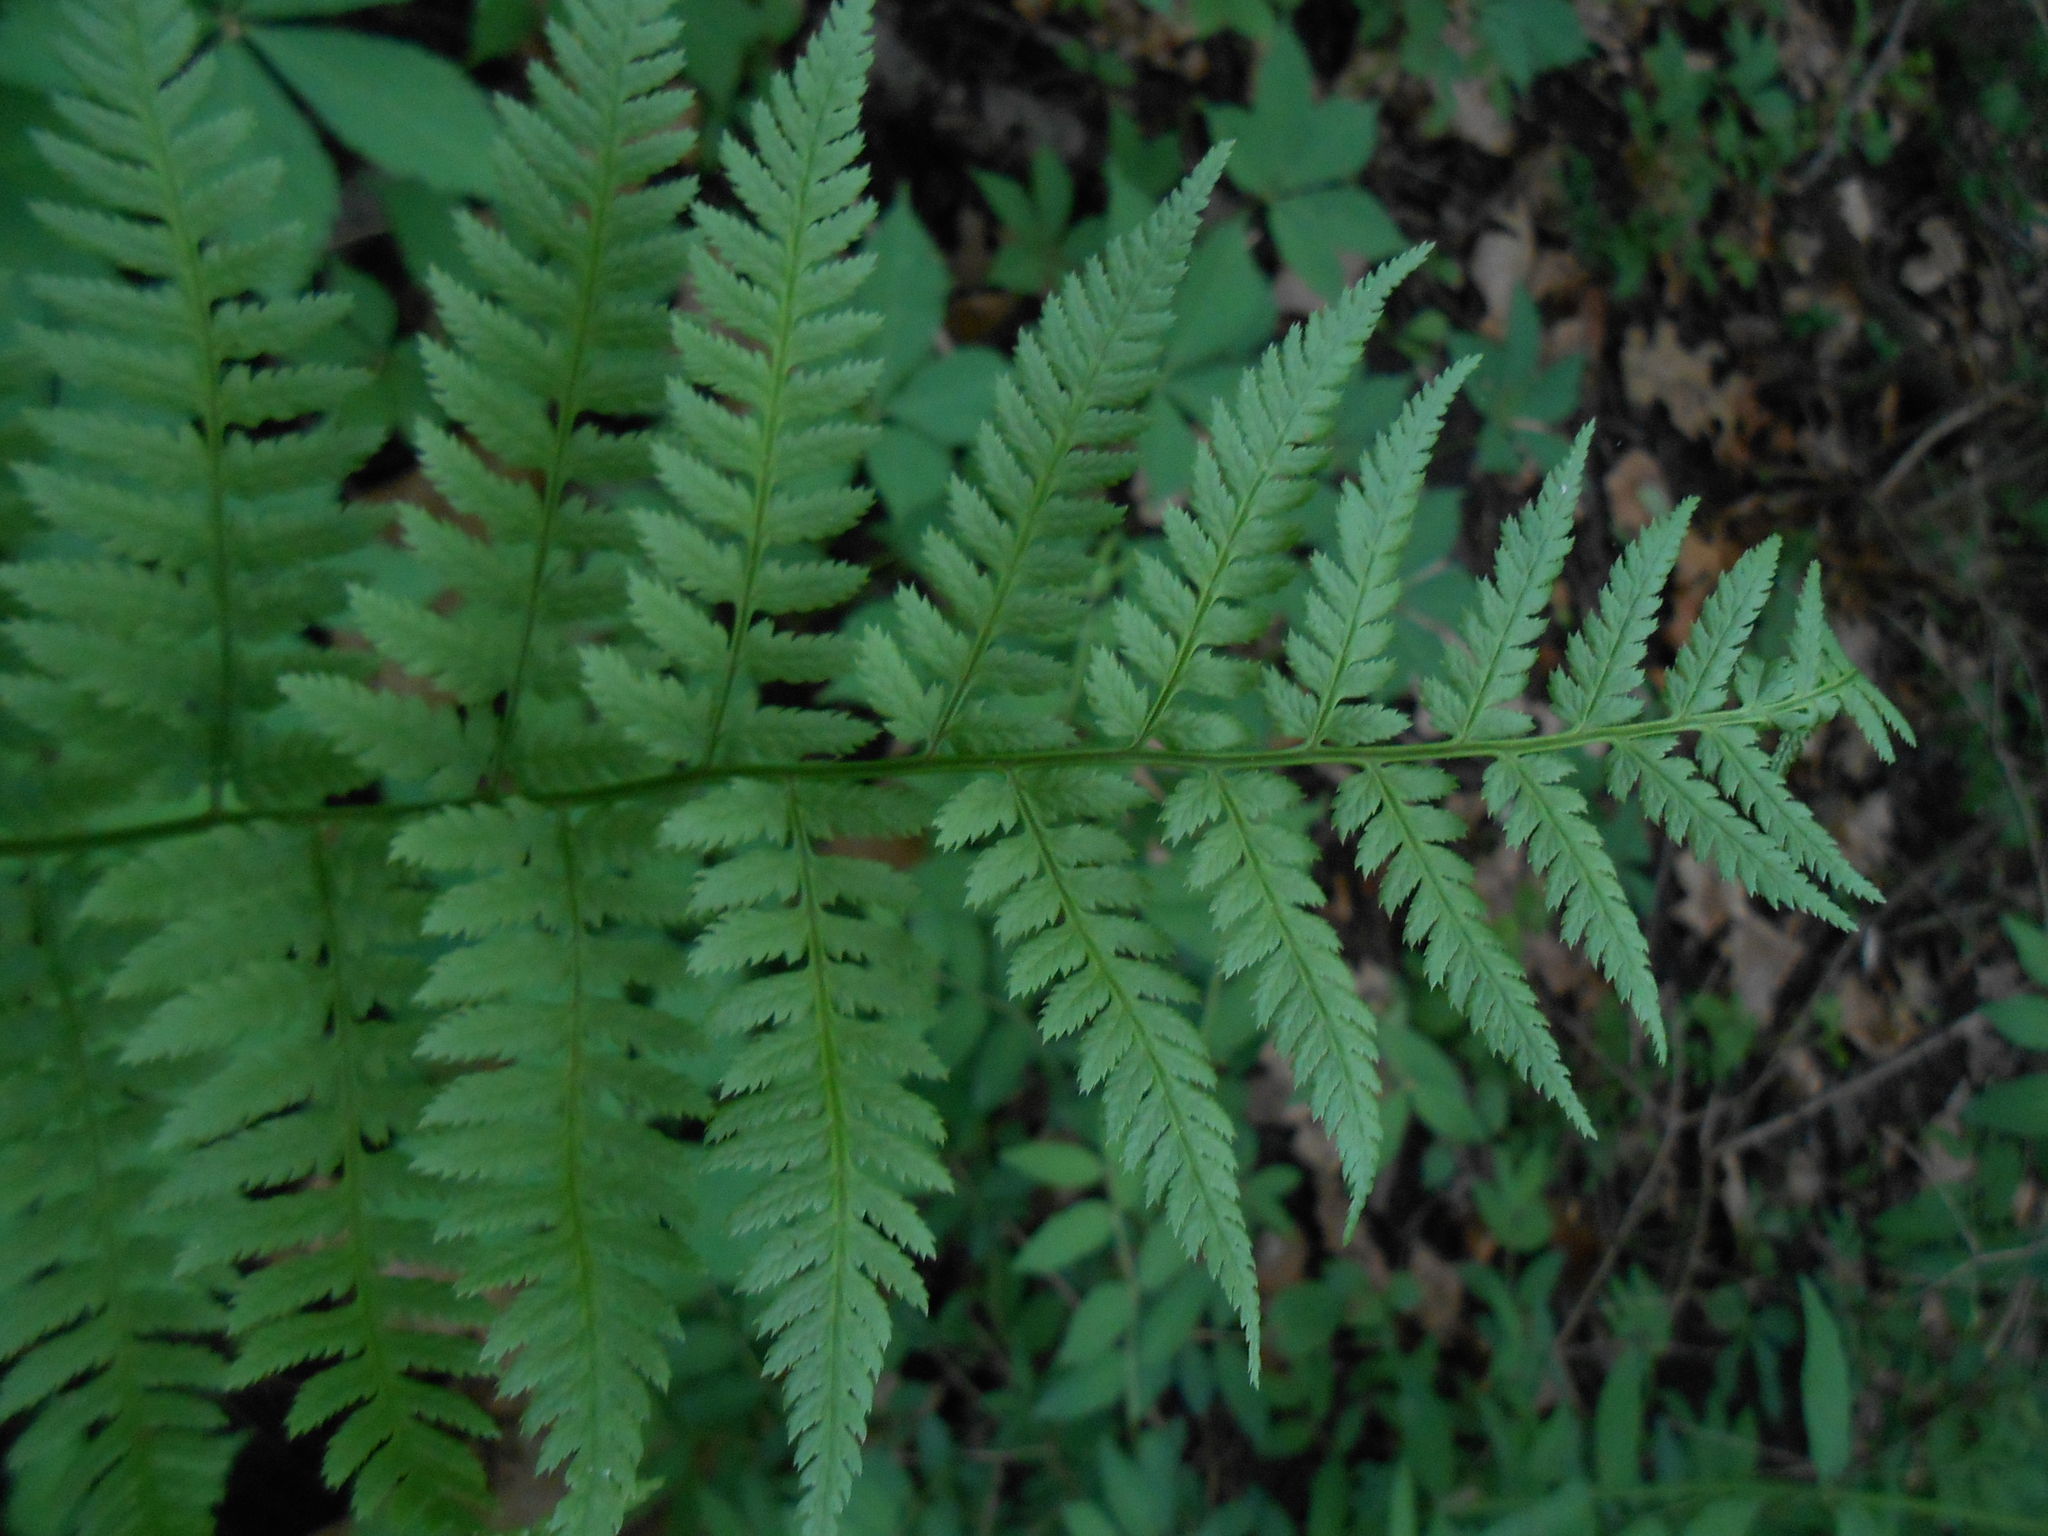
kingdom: Plantae
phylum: Tracheophyta
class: Polypodiopsida
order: Polypodiales
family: Dryopteridaceae
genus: Dryopteris
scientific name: Dryopteris carthusiana
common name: Narrow buckler-fern
